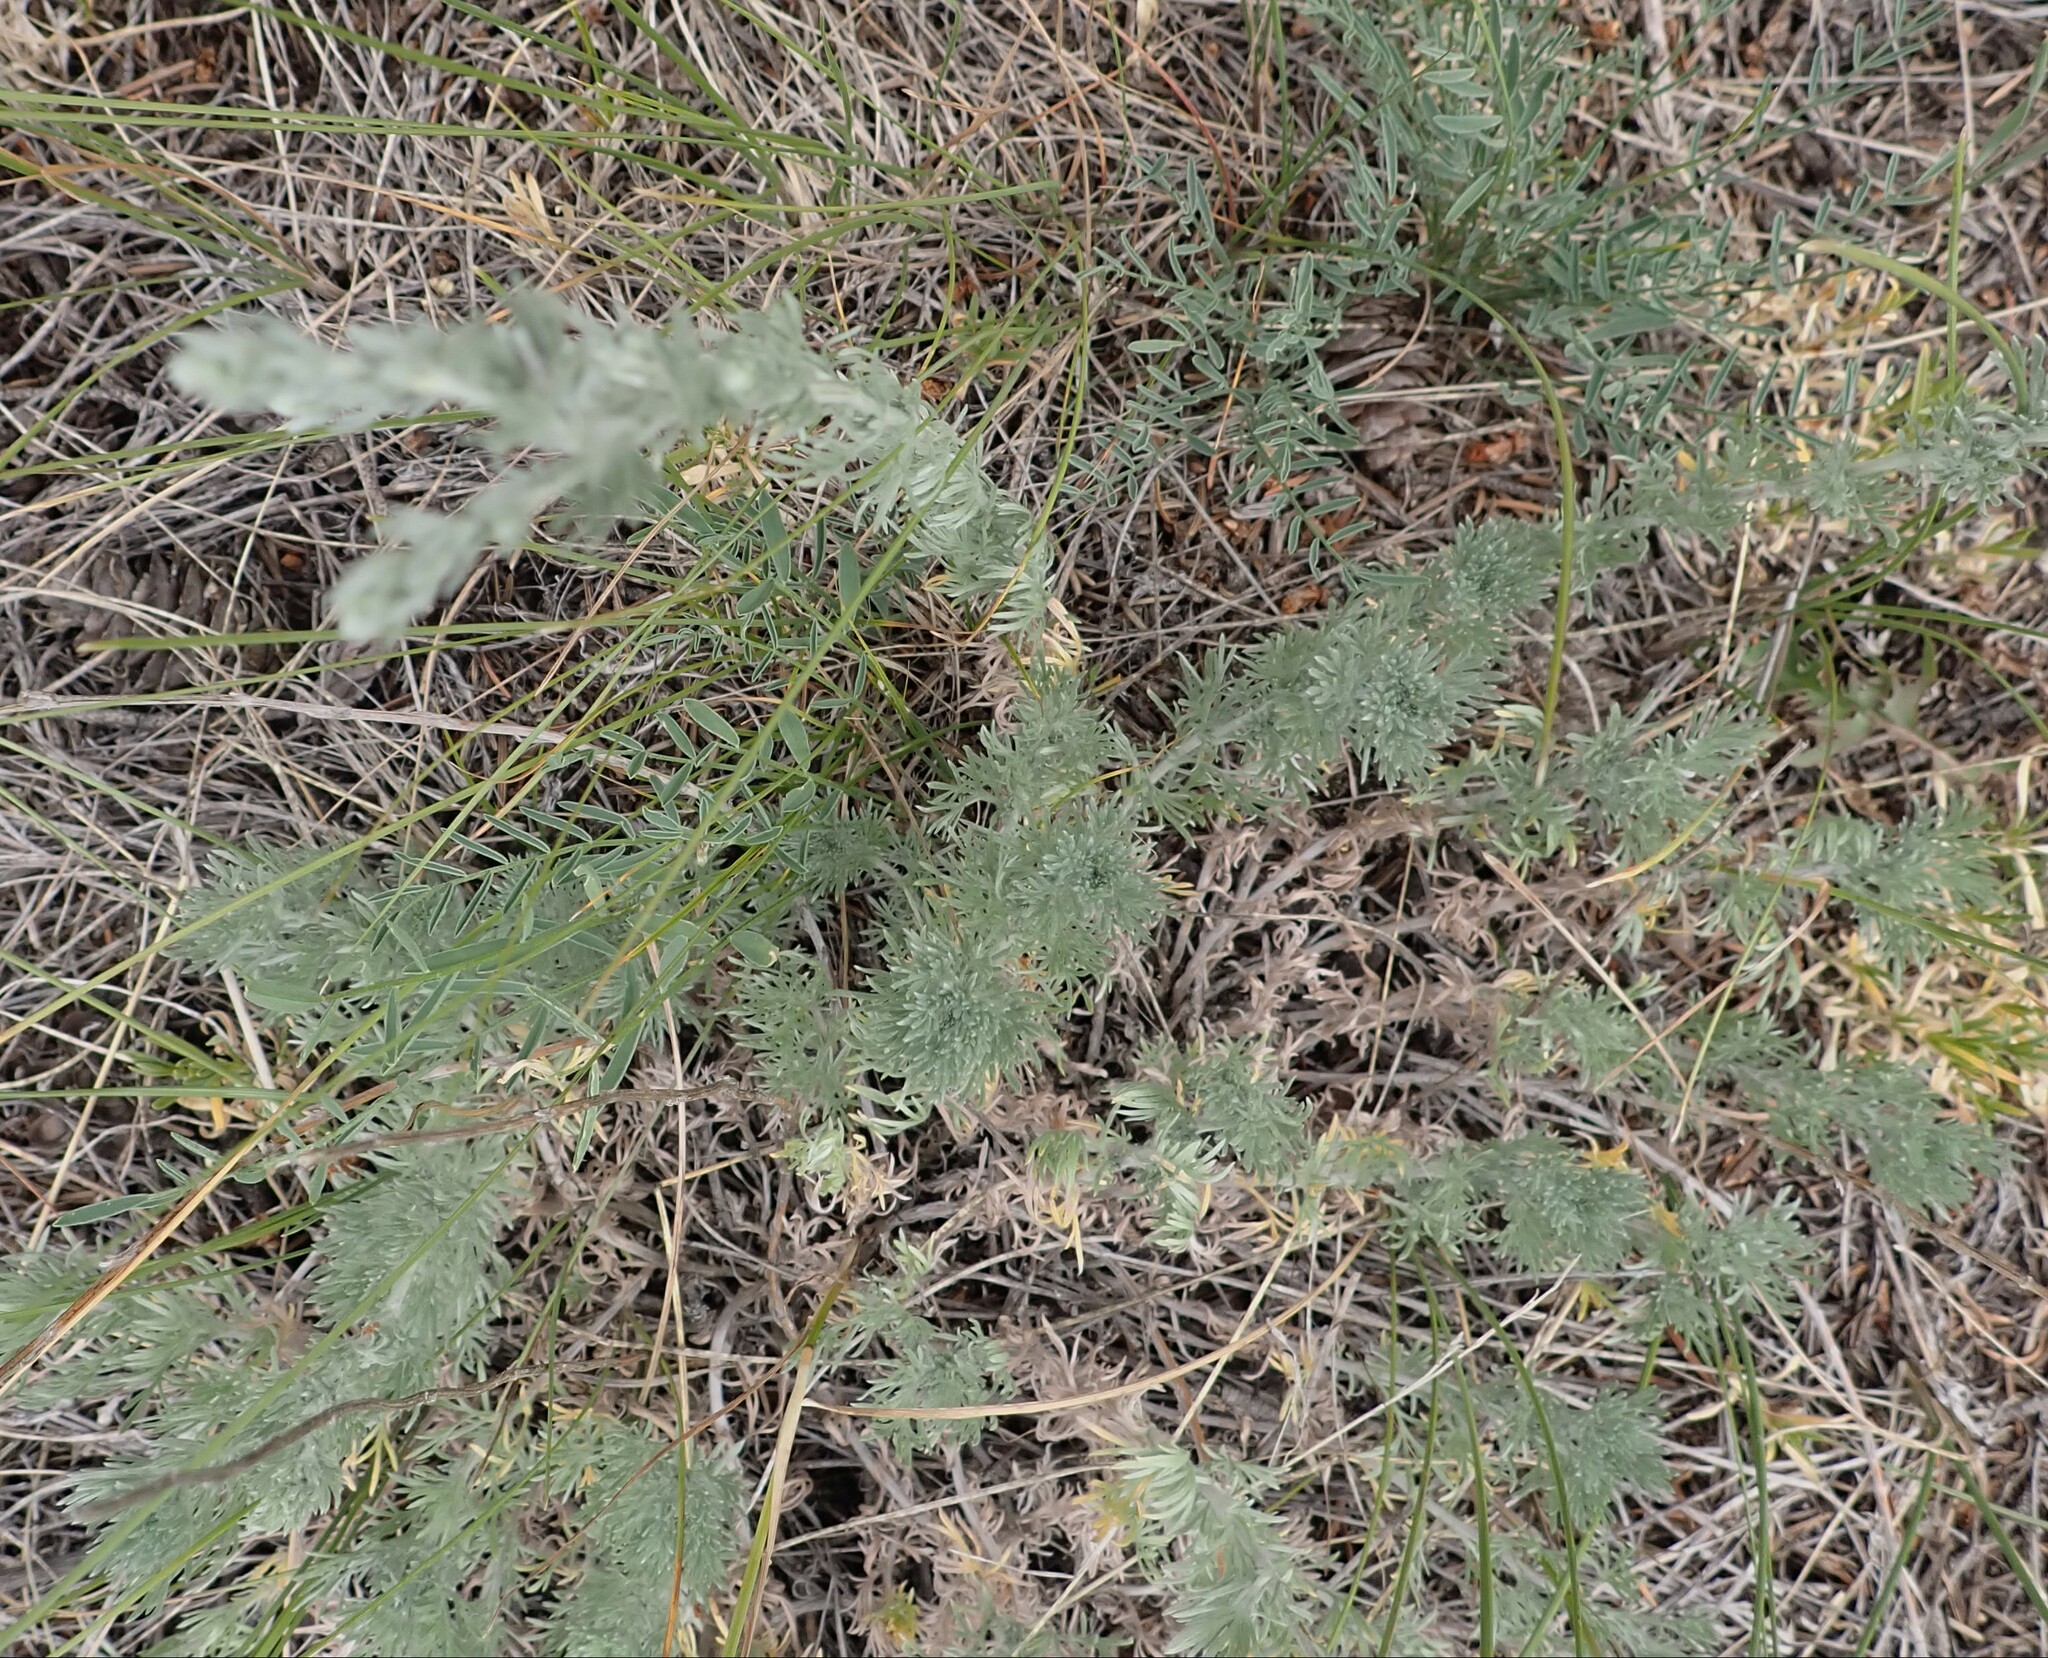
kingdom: Plantae
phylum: Tracheophyta
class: Magnoliopsida
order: Asterales
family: Asteraceae
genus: Artemisia
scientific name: Artemisia frigida
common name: Prairie sagewort
